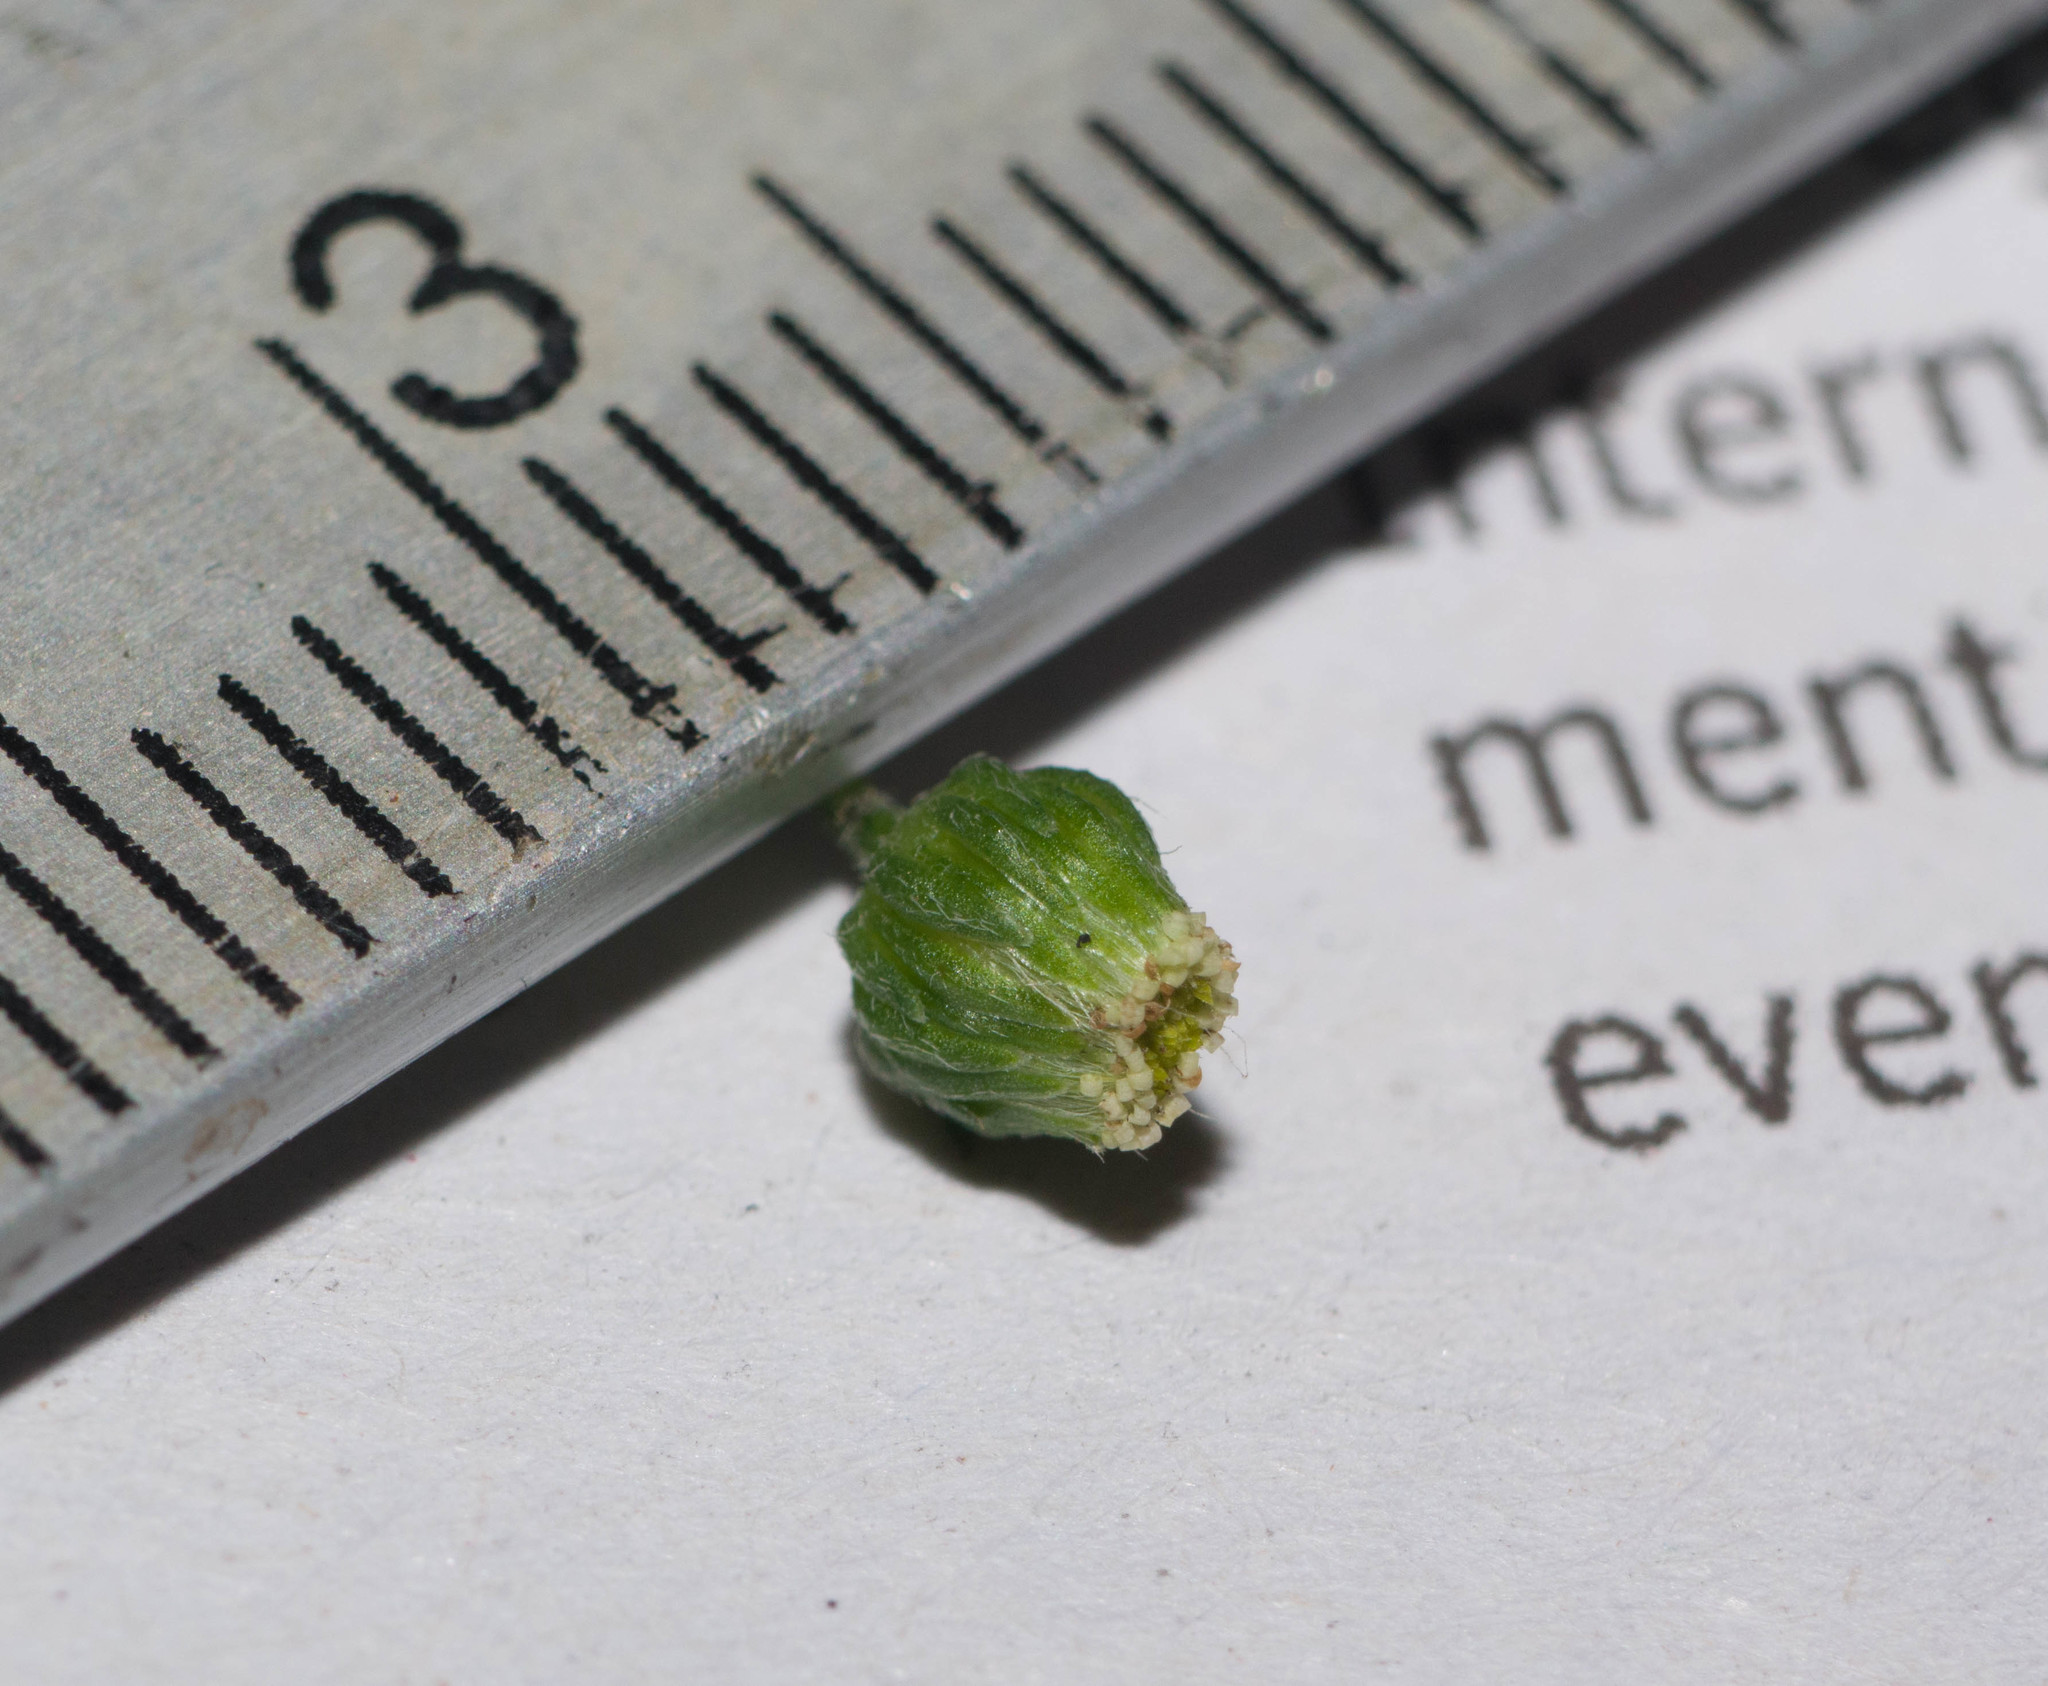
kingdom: Plantae
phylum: Tracheophyta
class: Magnoliopsida
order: Asterales
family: Asteraceae
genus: Erigeron
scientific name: Erigeron bellioides
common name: Bellorita
